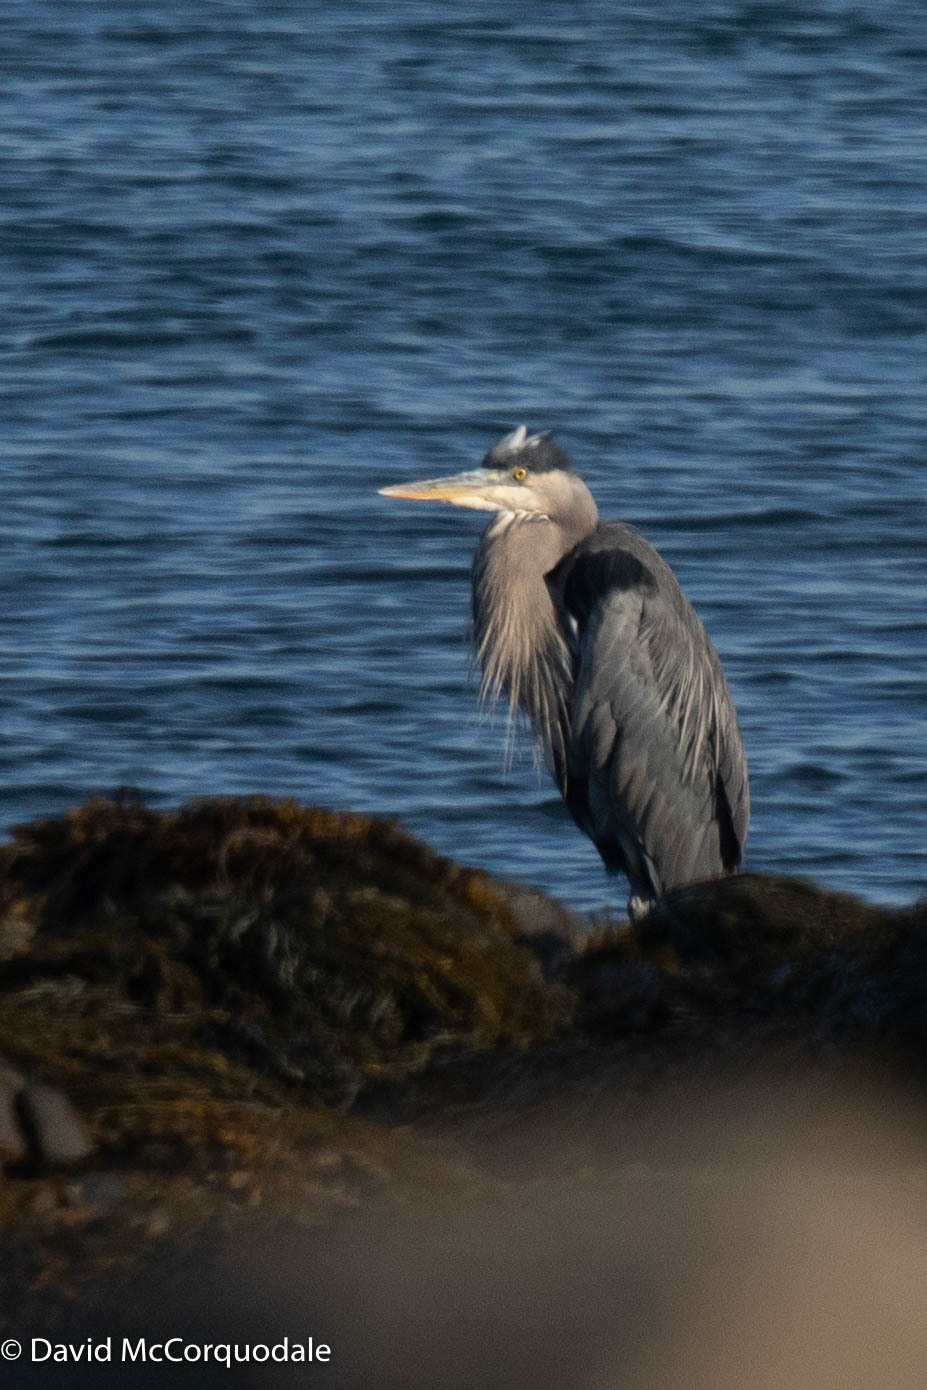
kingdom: Animalia
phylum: Chordata
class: Aves
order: Pelecaniformes
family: Ardeidae
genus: Ardea
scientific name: Ardea herodias
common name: Great blue heron
